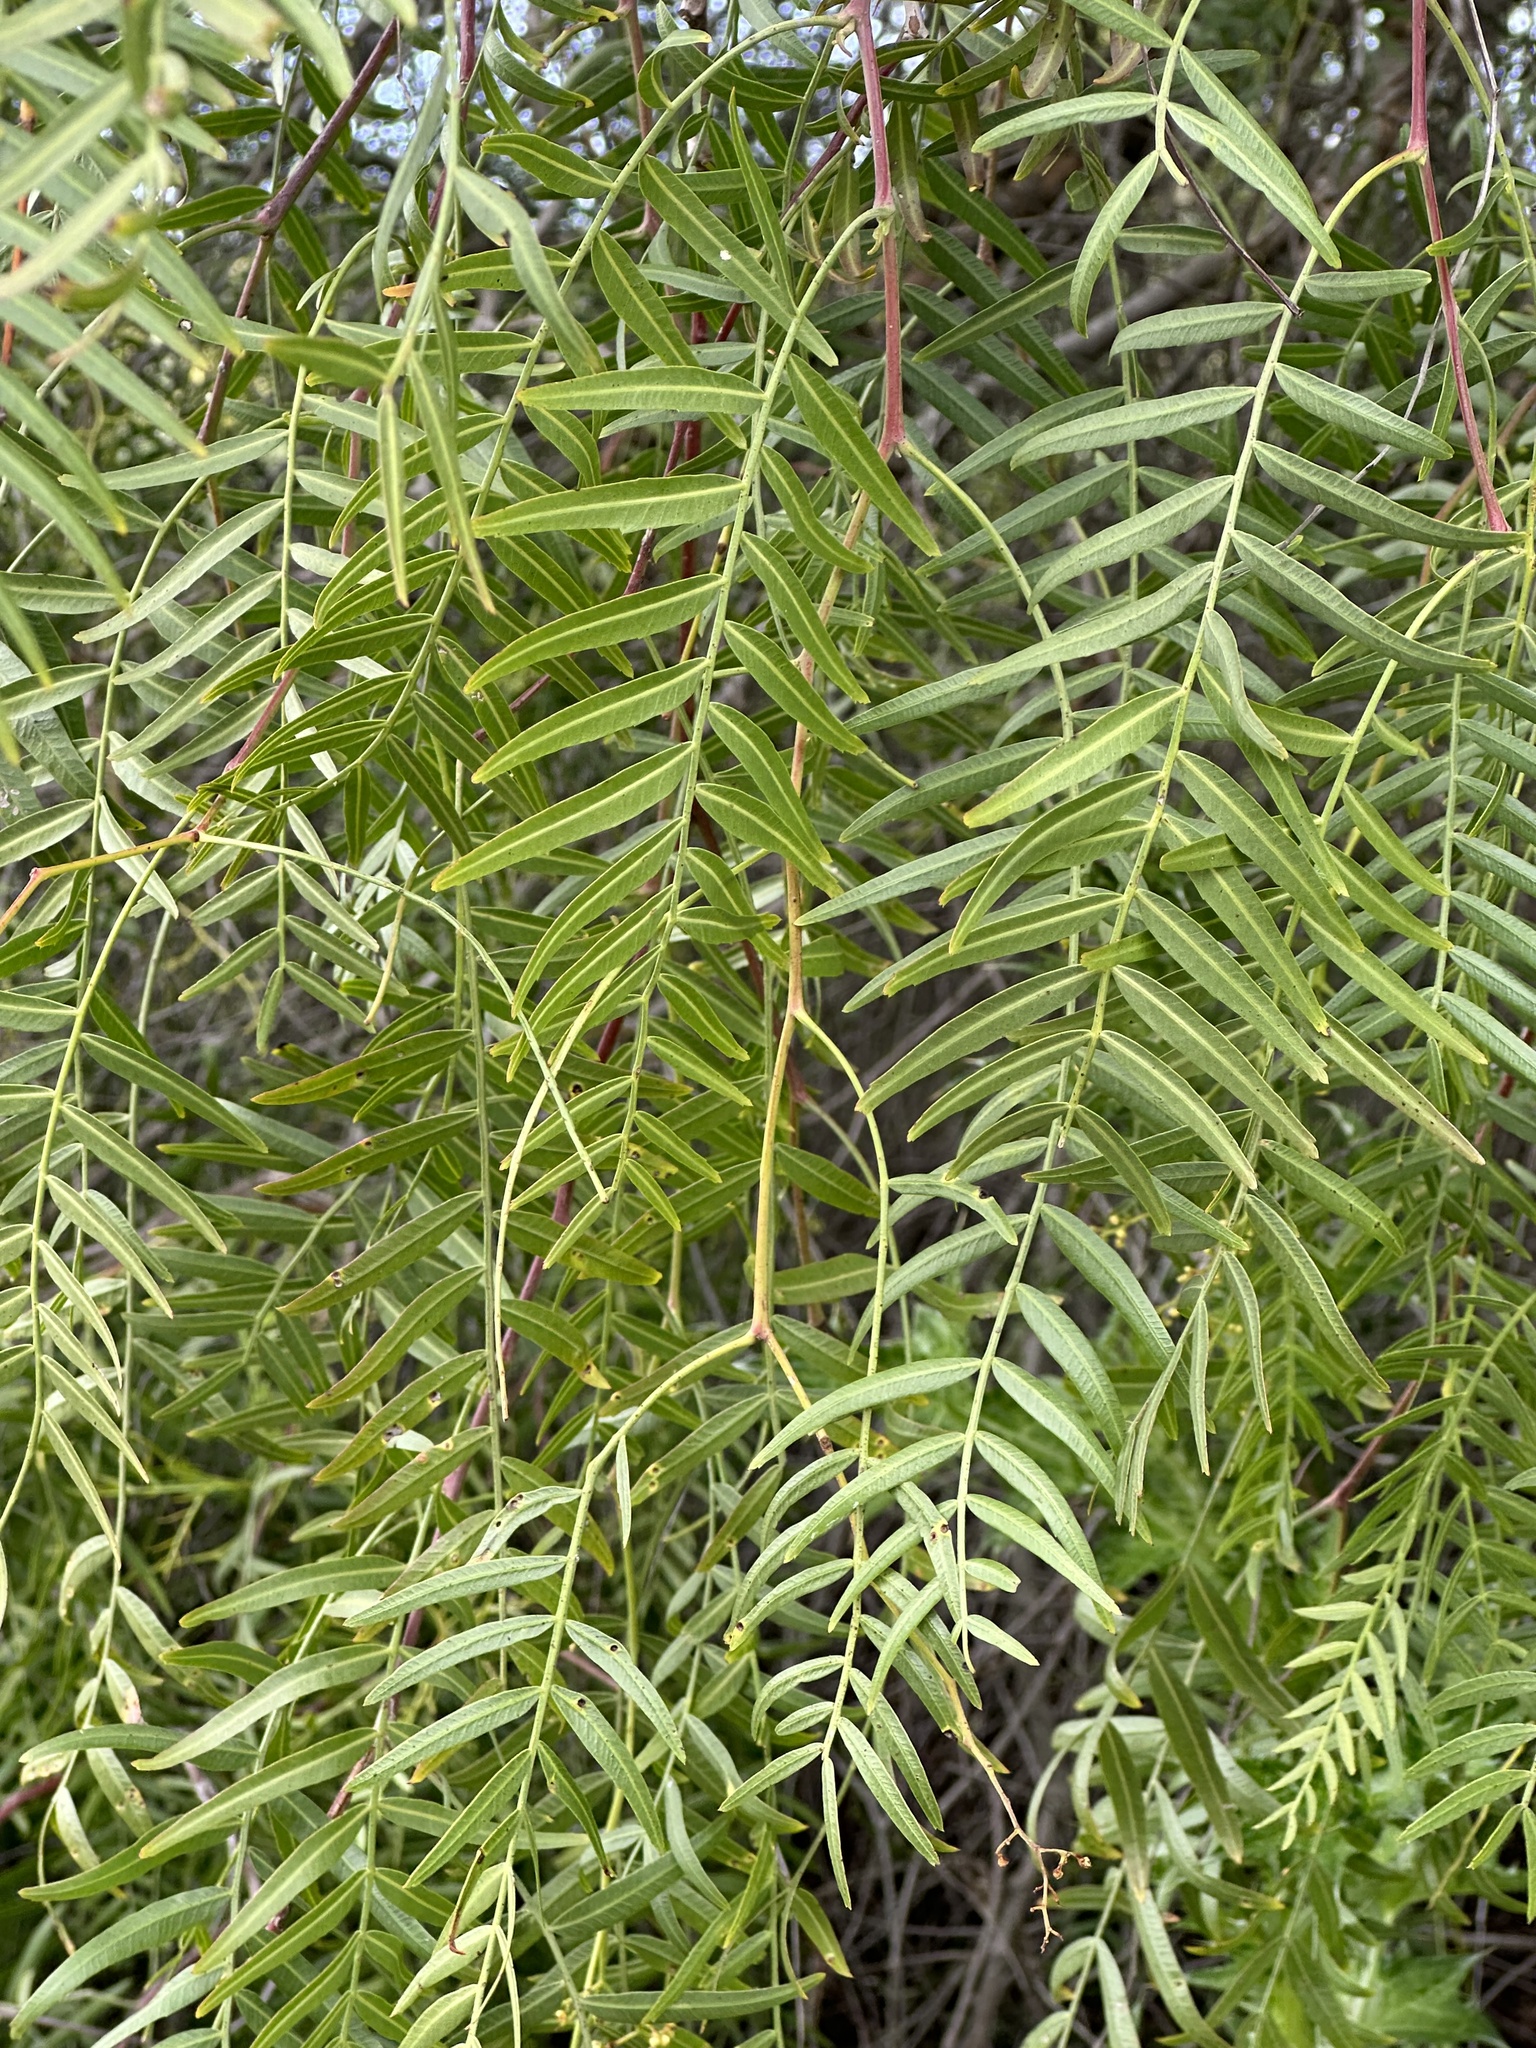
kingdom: Plantae
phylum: Tracheophyta
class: Magnoliopsida
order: Sapindales
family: Anacardiaceae
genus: Schinus
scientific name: Schinus molle
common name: Peruvian peppertree
